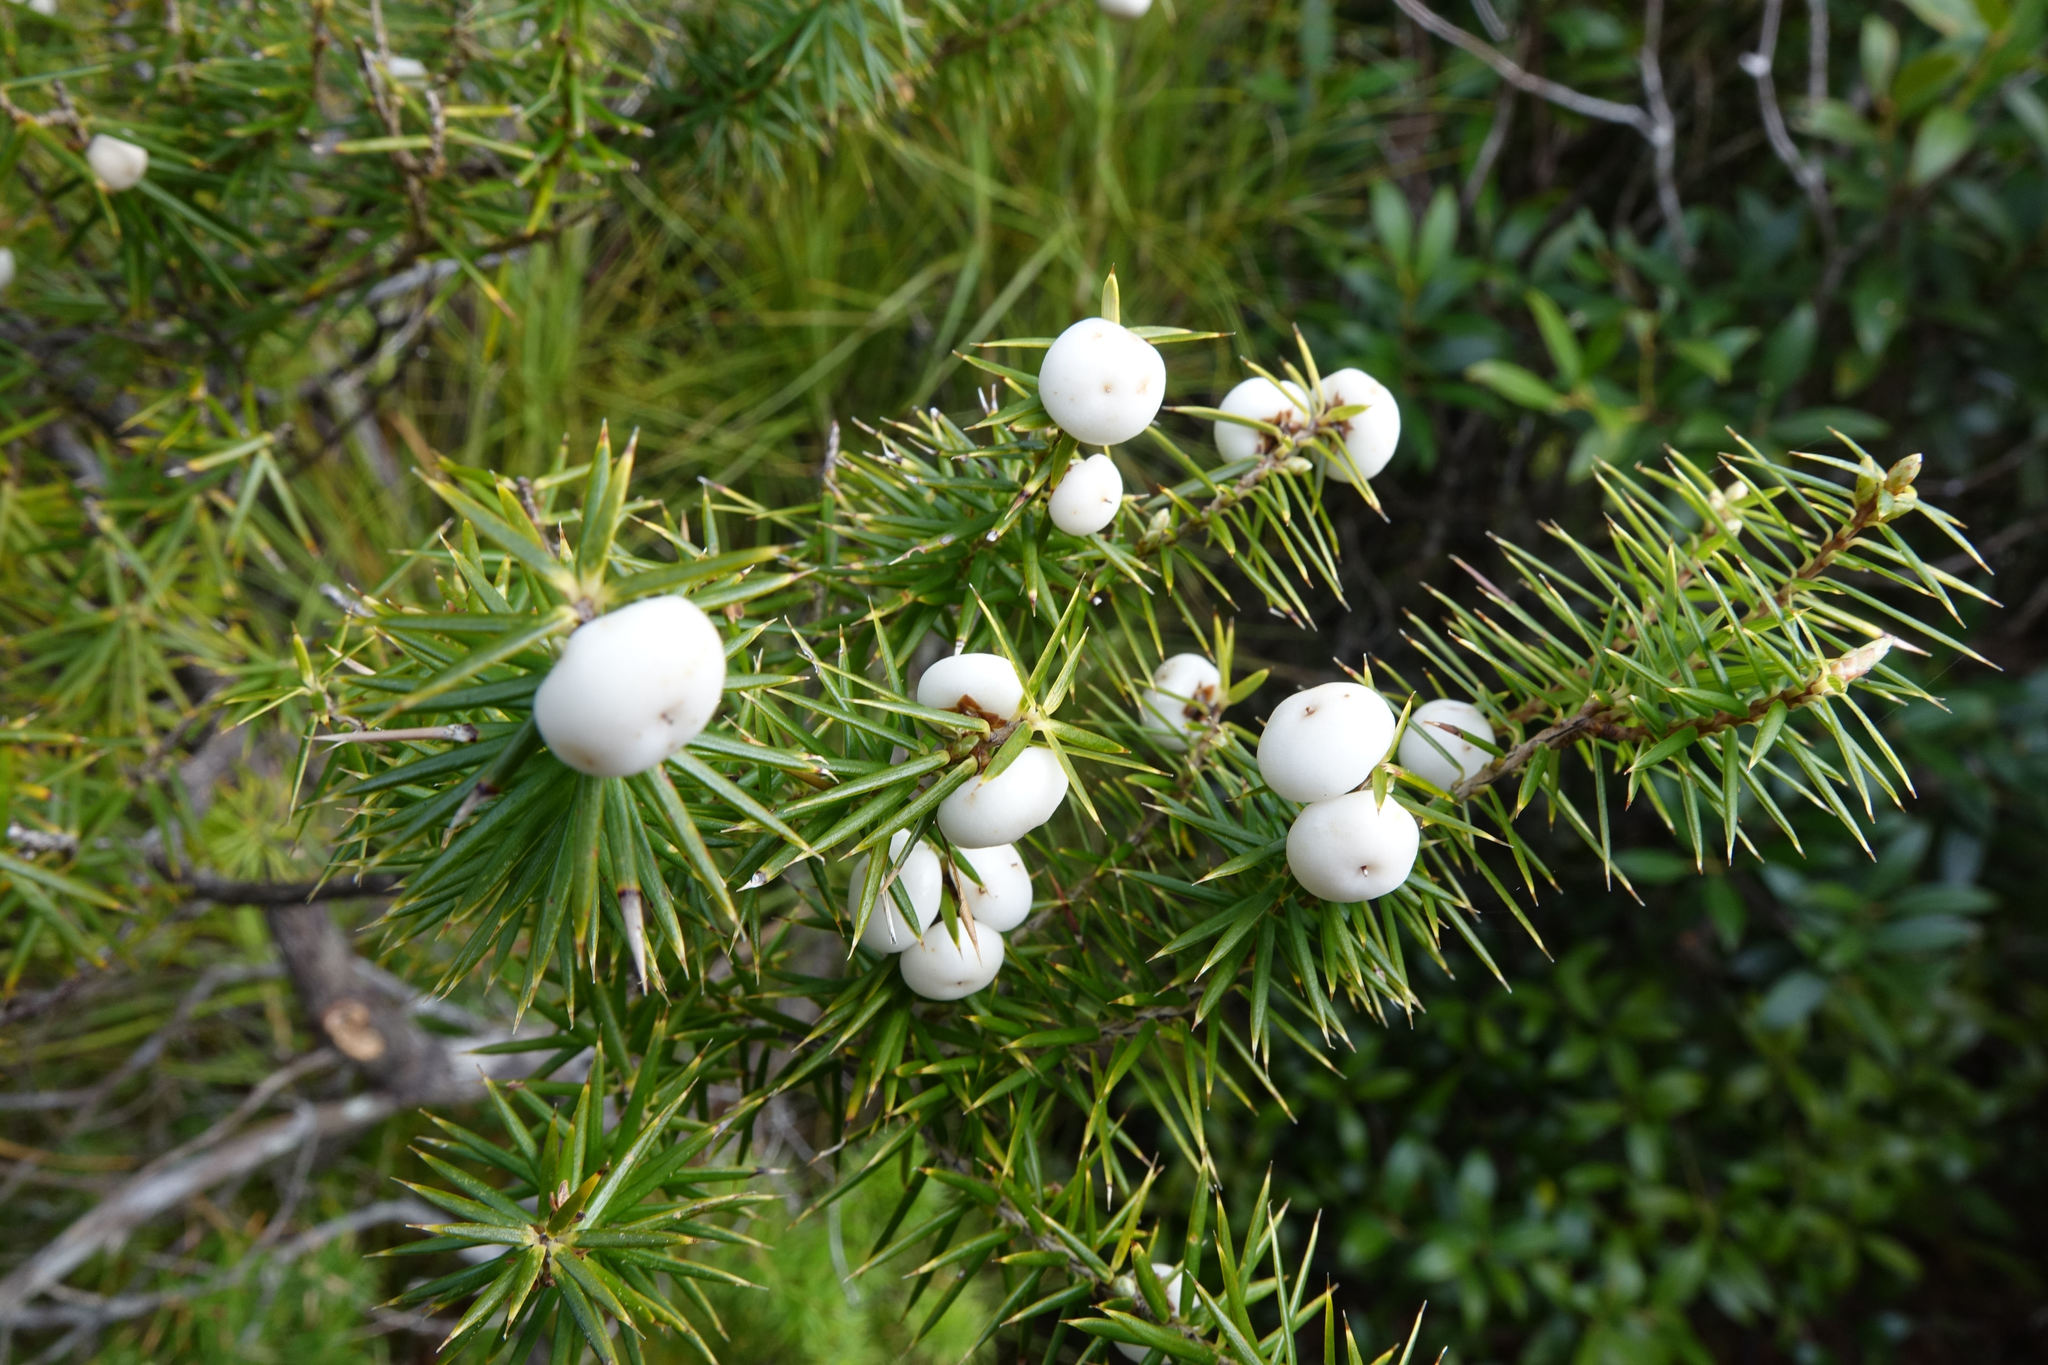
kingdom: Plantae
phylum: Tracheophyta
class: Magnoliopsida
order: Ericales
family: Ericaceae
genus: Leptecophylla
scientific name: Leptecophylla juniperina
